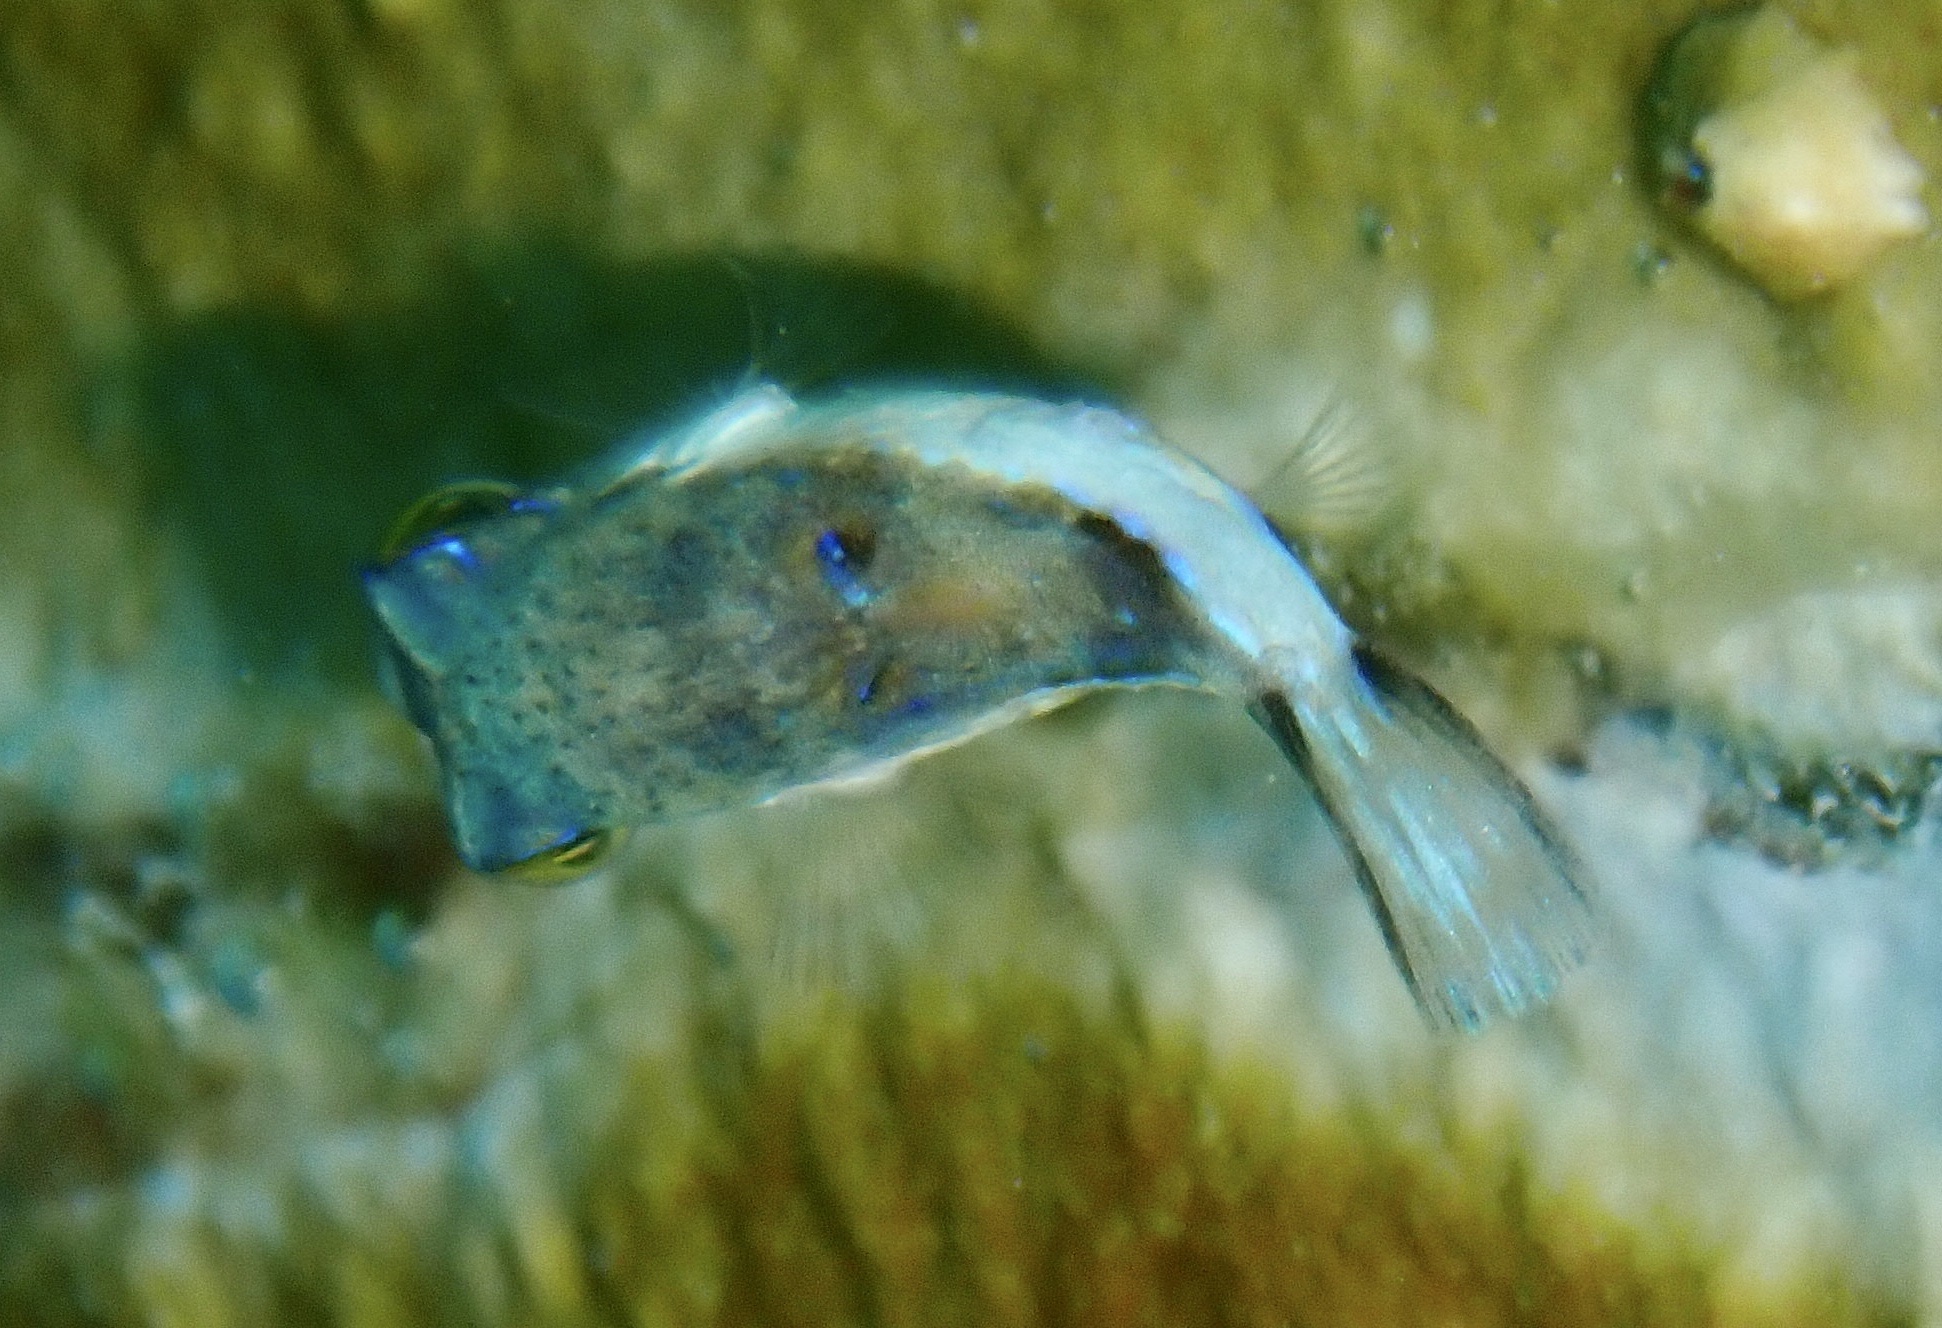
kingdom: Animalia
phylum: Chordata
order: Tetraodontiformes
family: Tetraodontidae
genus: Canthigaster
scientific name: Canthigaster rostrata
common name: Caribbean sharpnose-puffer
